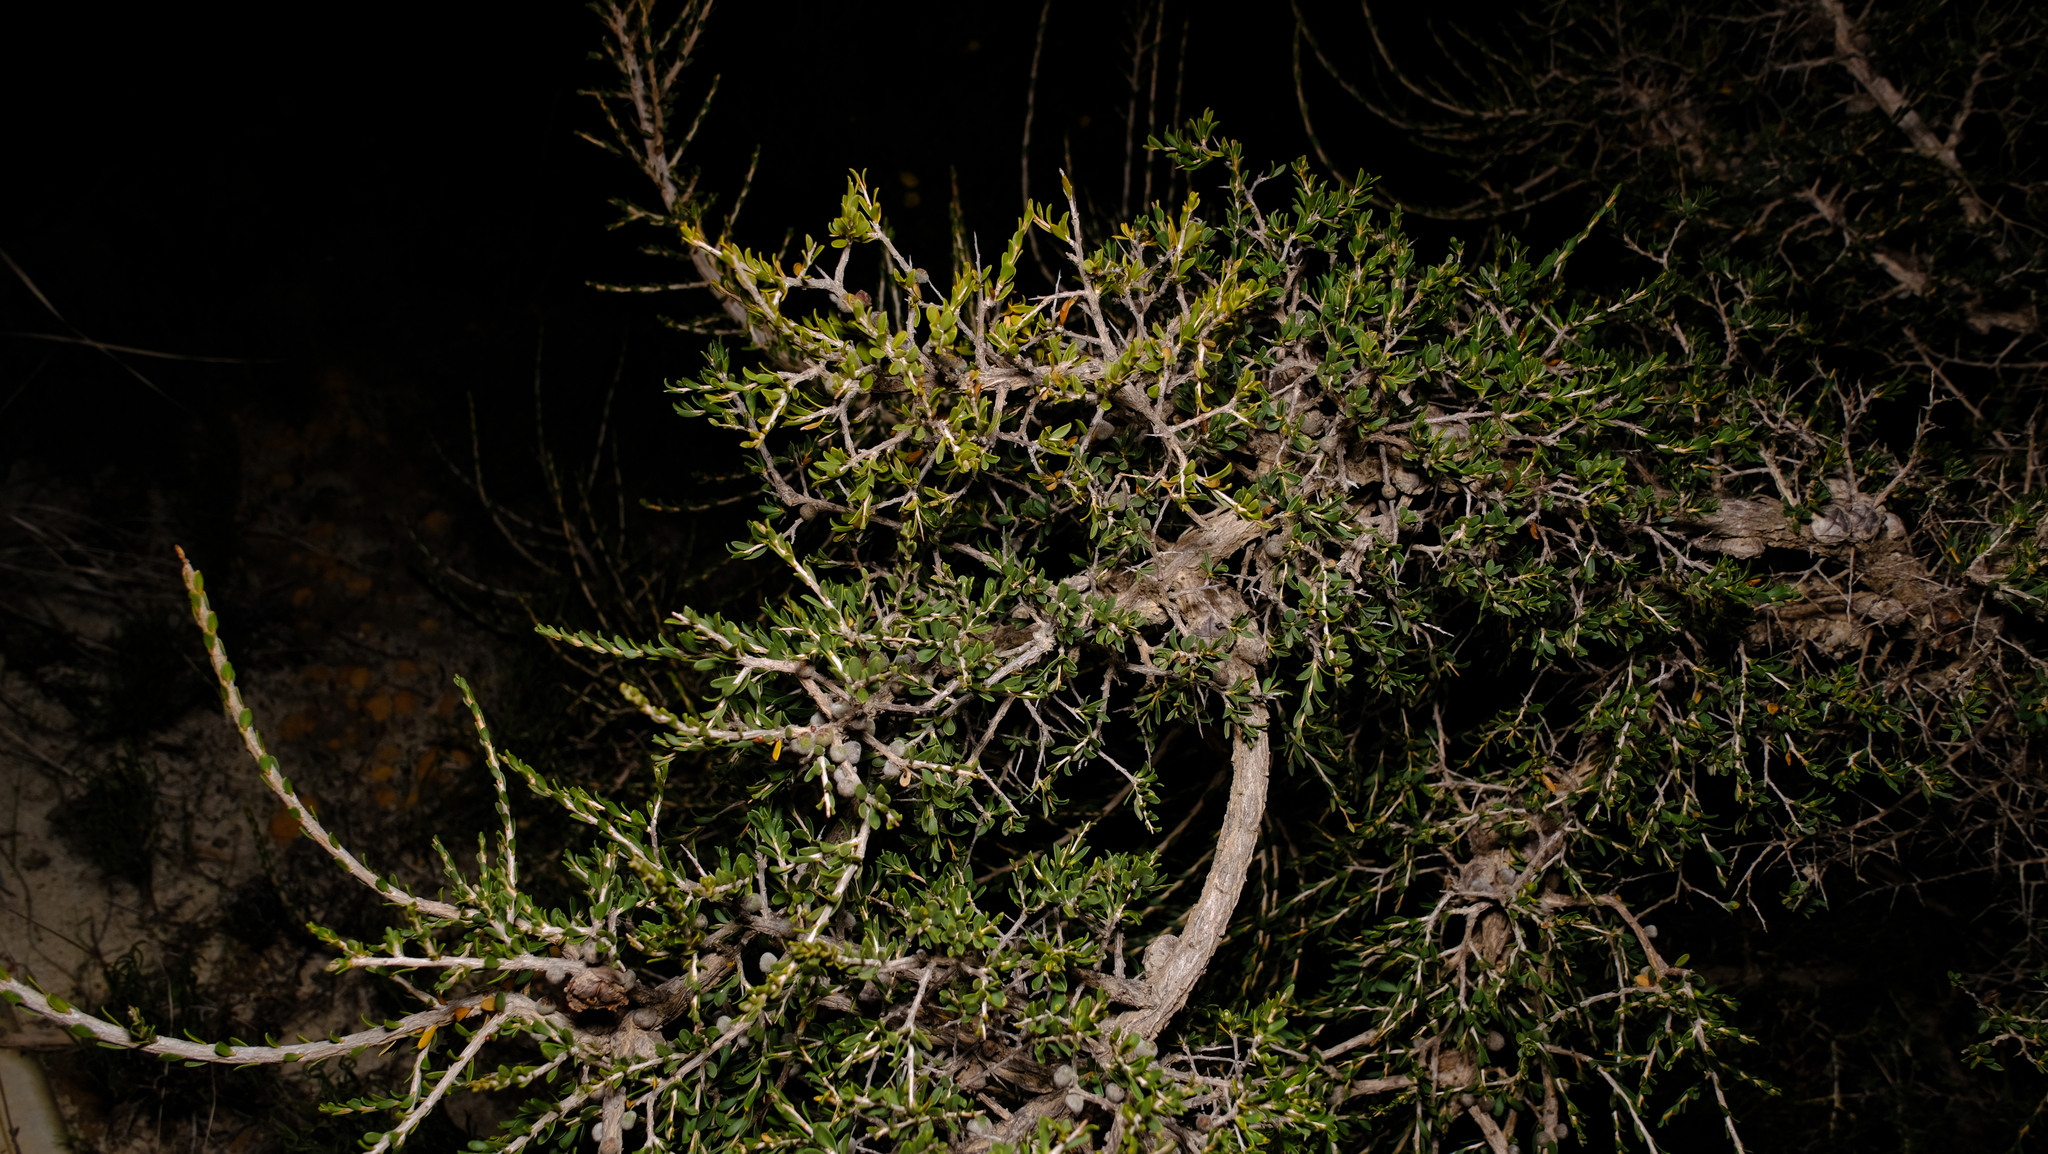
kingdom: Plantae
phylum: Tracheophyta
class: Magnoliopsida
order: Myrtales
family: Myrtaceae
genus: Leptospermum
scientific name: Leptospermum spinescens
